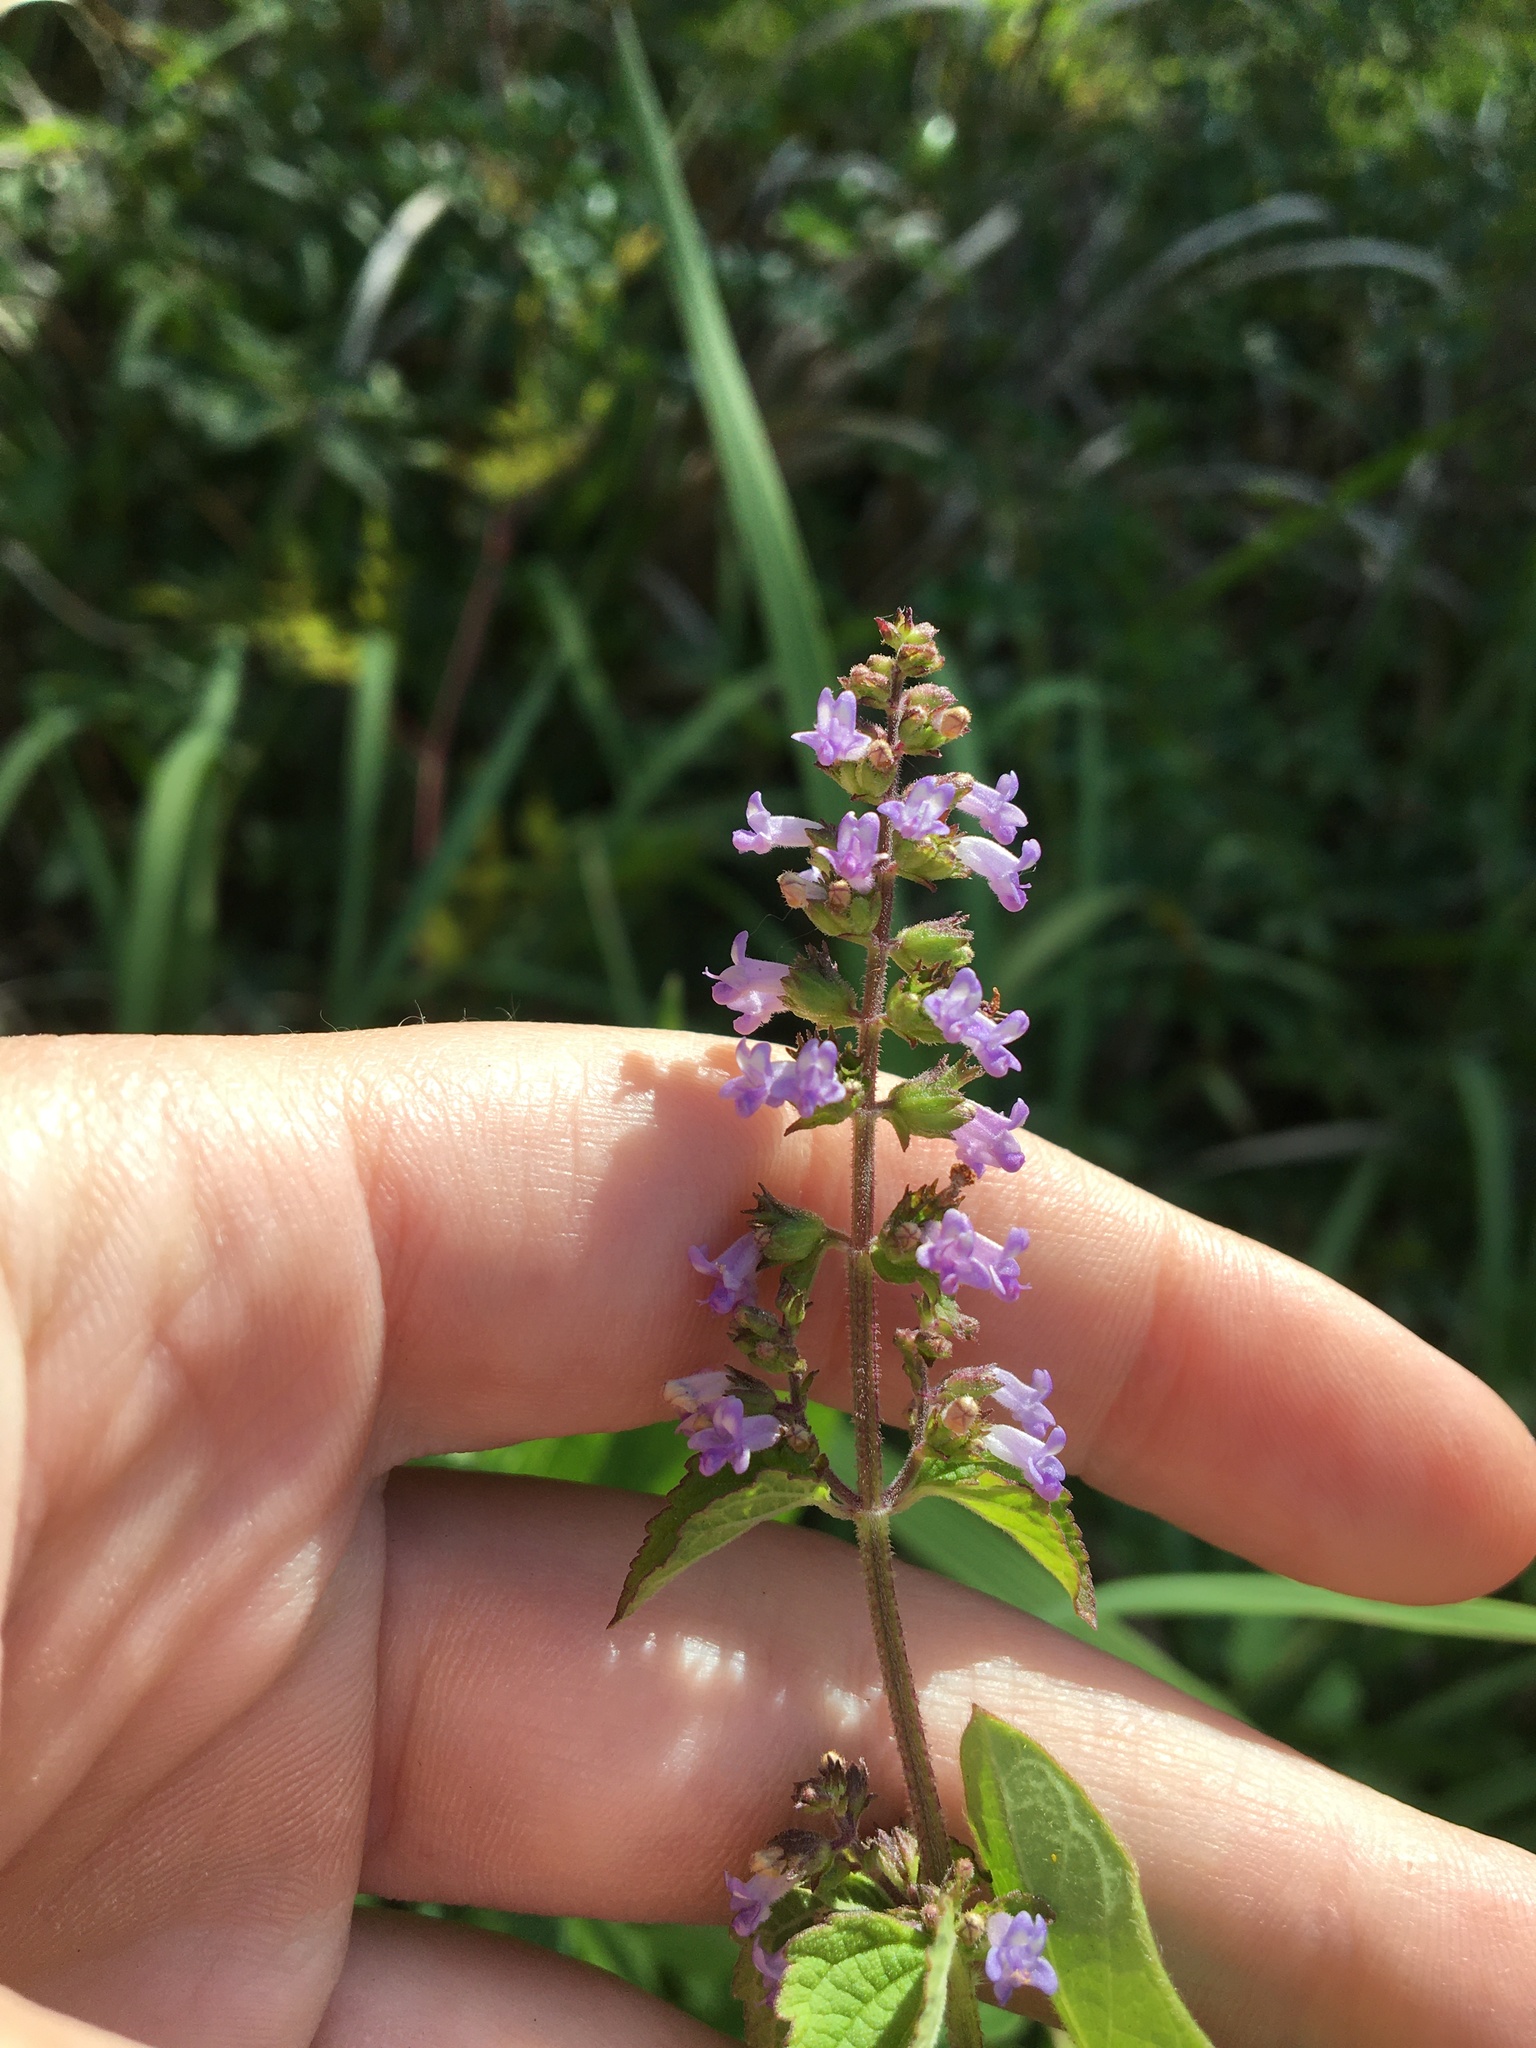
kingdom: Plantae
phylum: Tracheophyta
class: Magnoliopsida
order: Lamiales
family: Lamiaceae
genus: Cantinoa
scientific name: Cantinoa mutabilis
